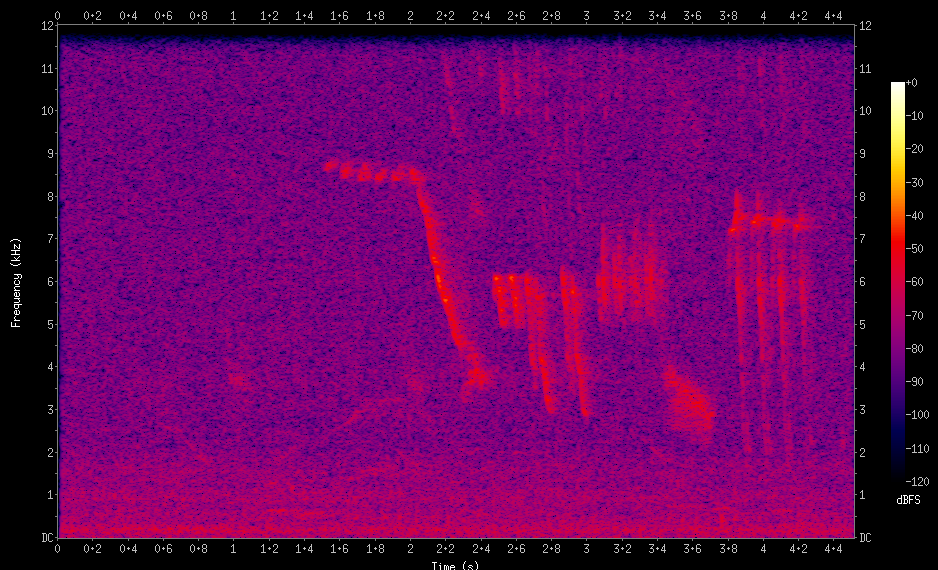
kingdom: Animalia
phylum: Chordata
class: Aves
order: Passeriformes
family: Icteridae
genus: Molothrus
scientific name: Molothrus bonariensis
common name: Shiny cowbird
